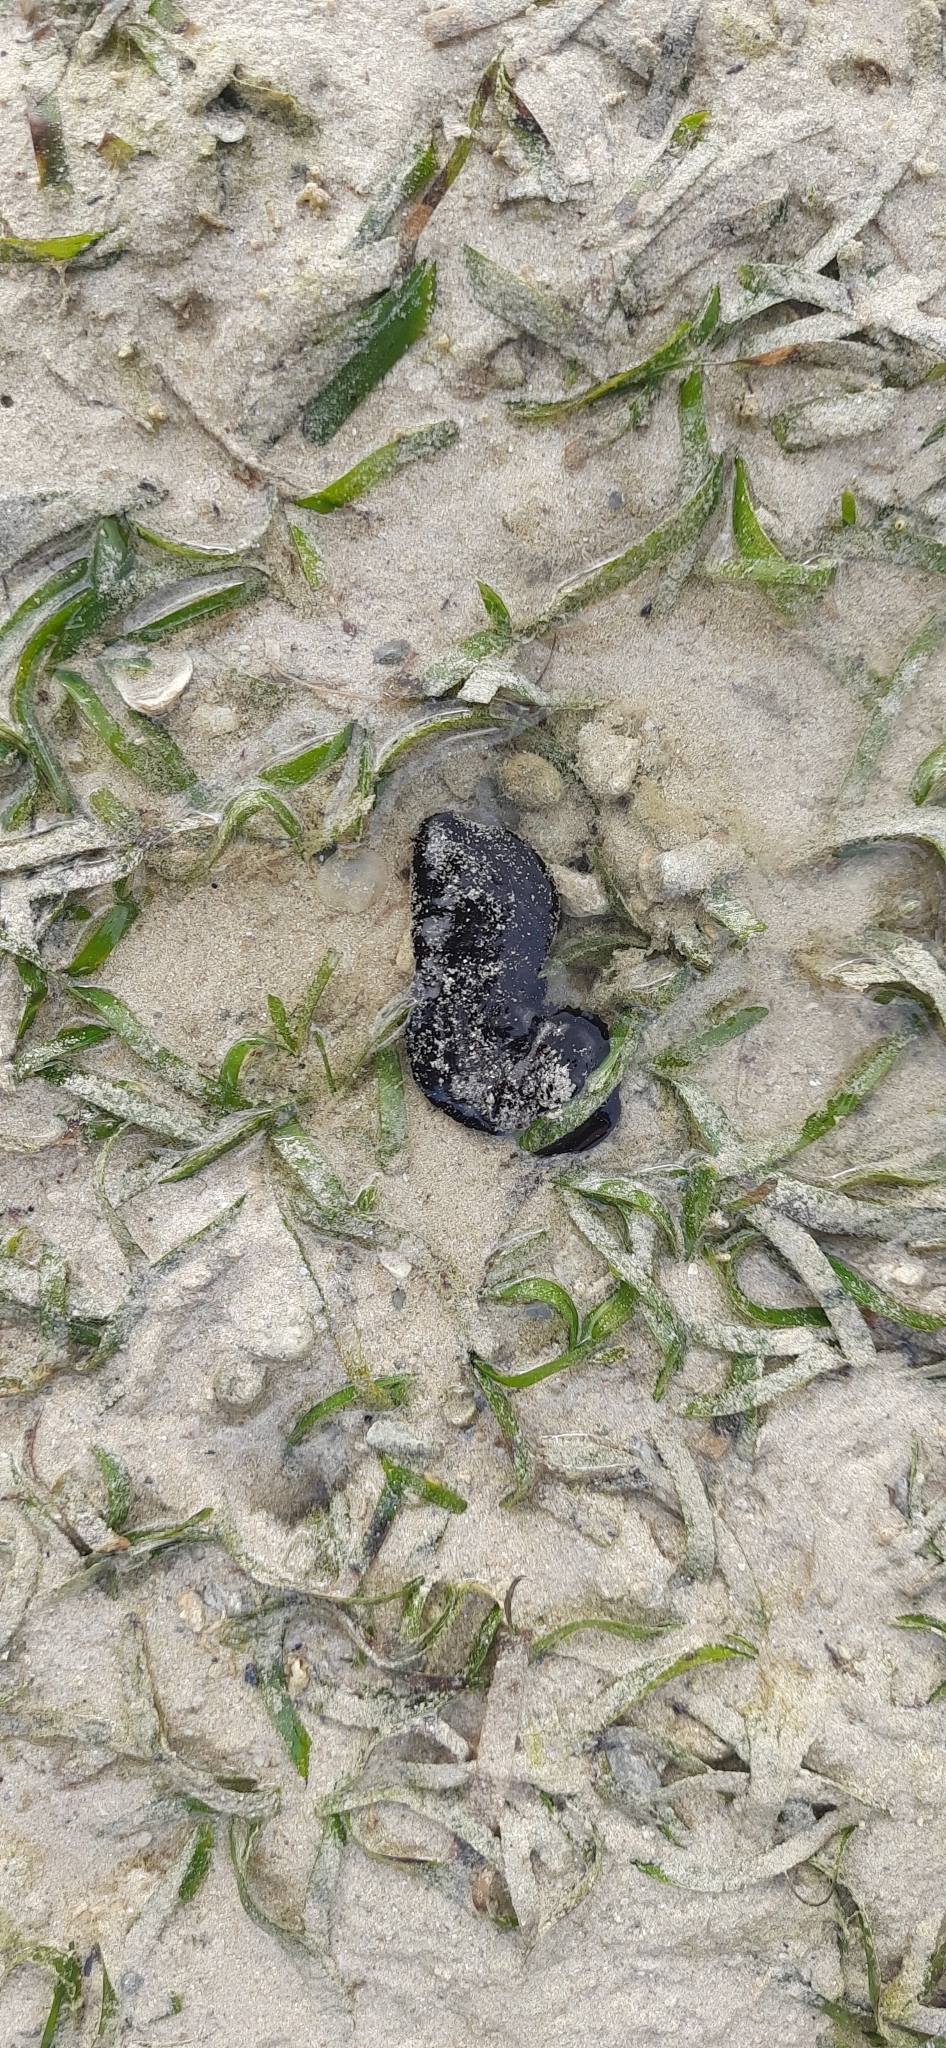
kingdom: Animalia
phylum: Echinodermata
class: Holothuroidea
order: Holothuriida
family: Holothuriidae
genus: Holothuria
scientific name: Holothuria leucospilota
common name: White thread fish
